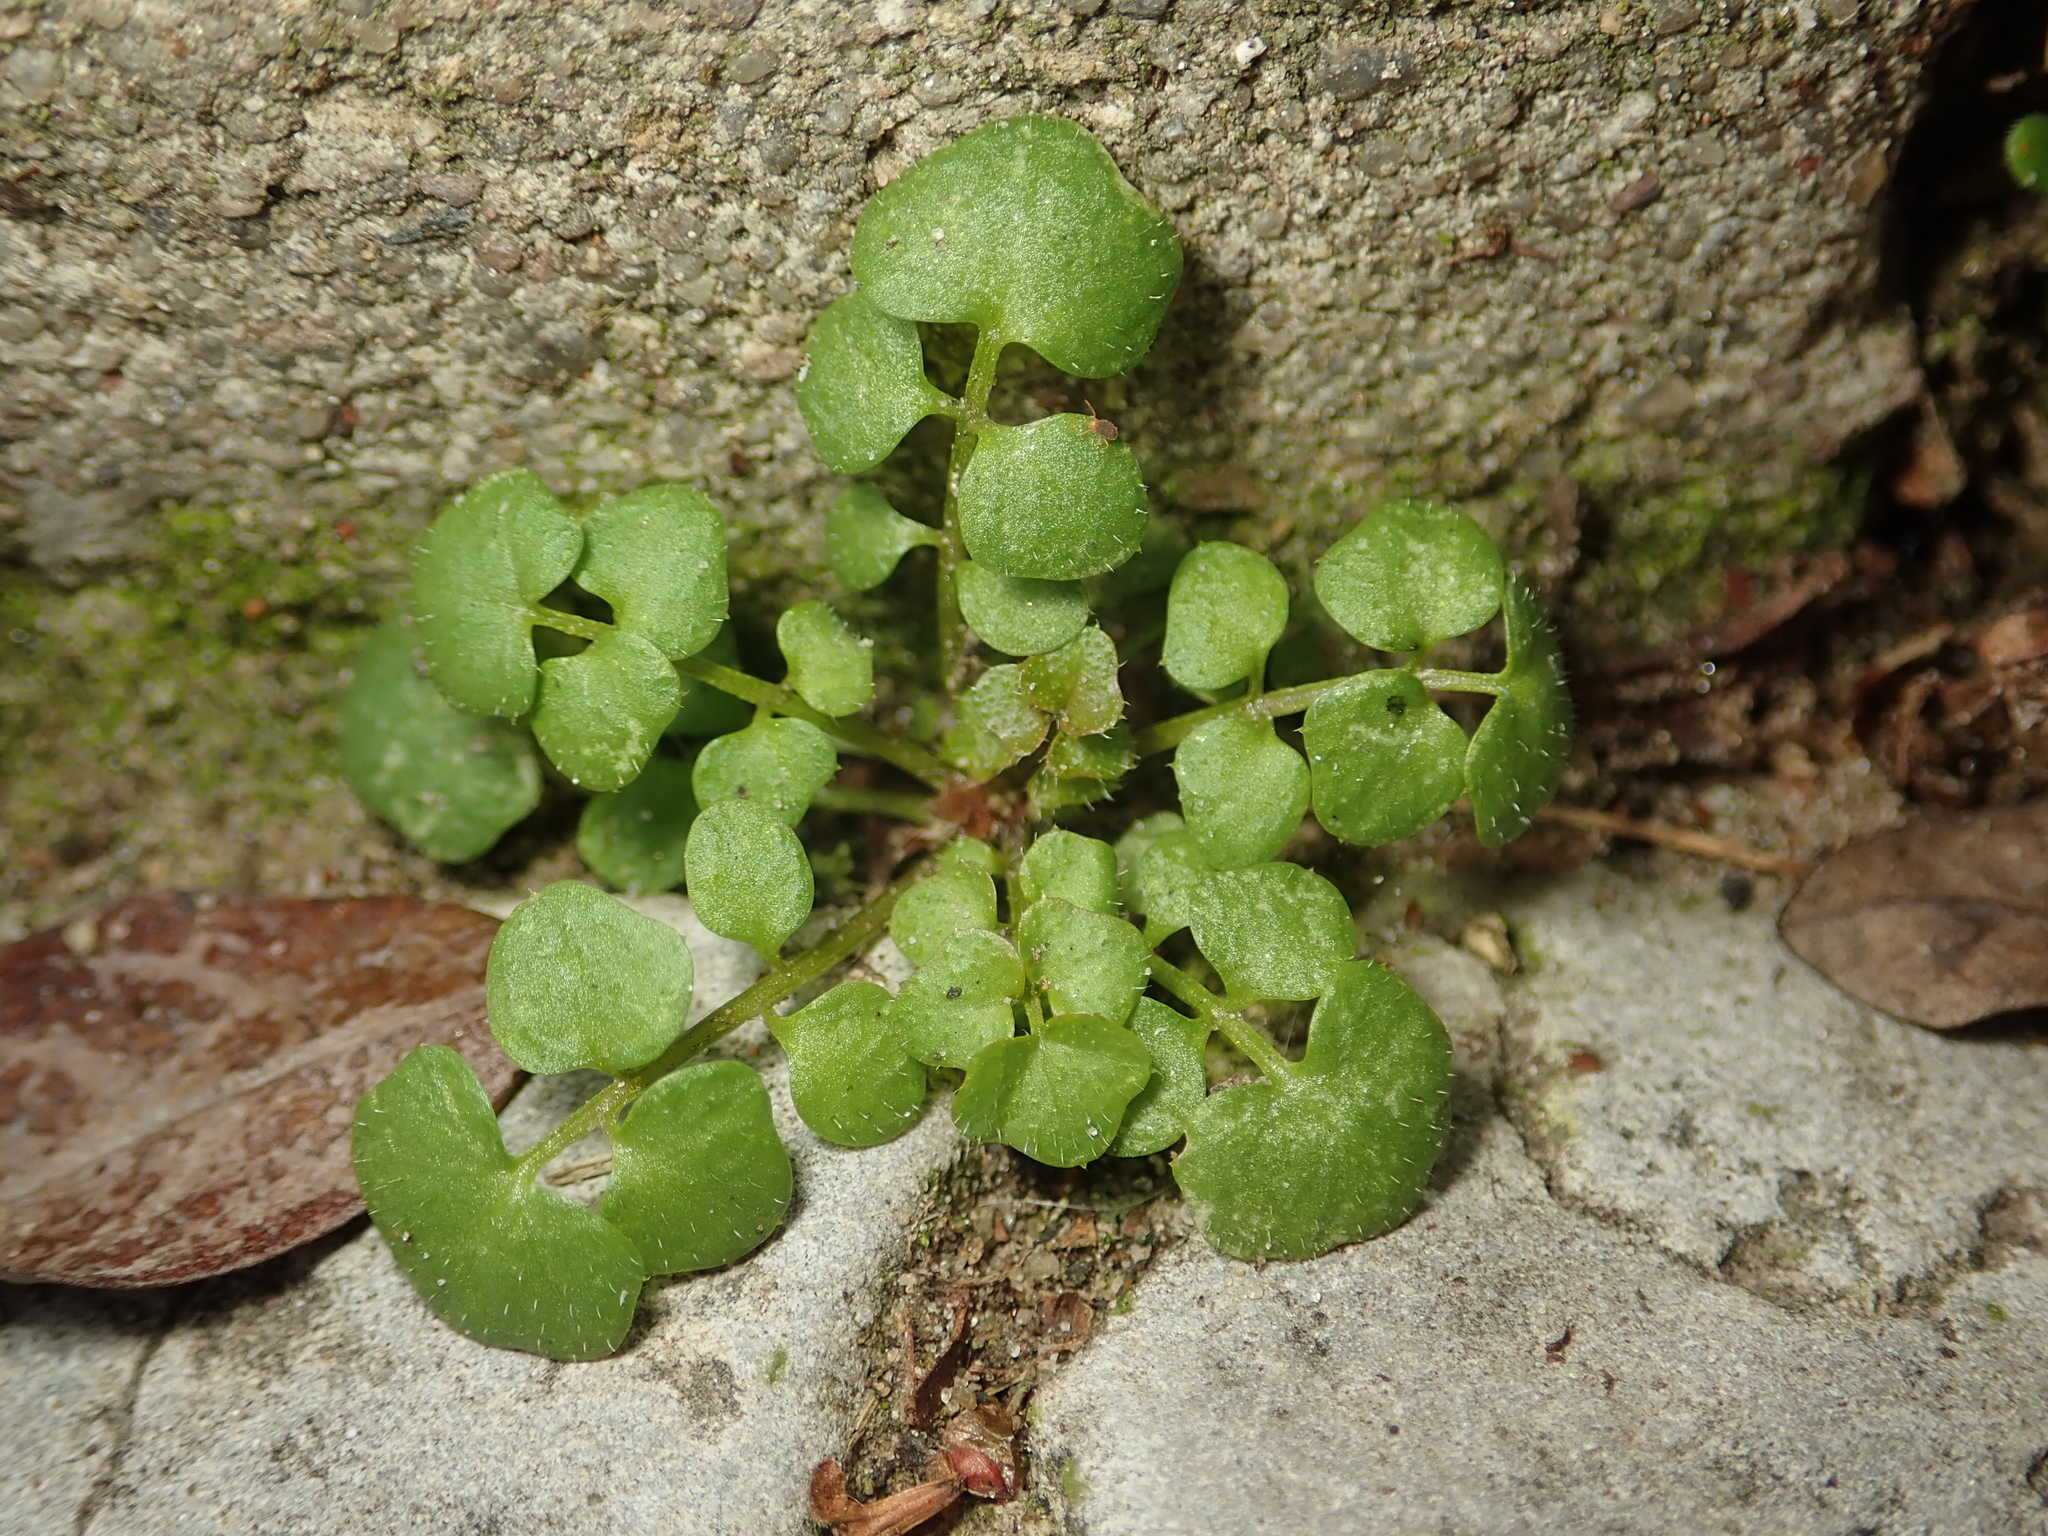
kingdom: Plantae
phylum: Tracheophyta
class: Magnoliopsida
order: Brassicales
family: Brassicaceae
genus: Cardamine
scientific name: Cardamine hirsuta
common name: Hairy bittercress
